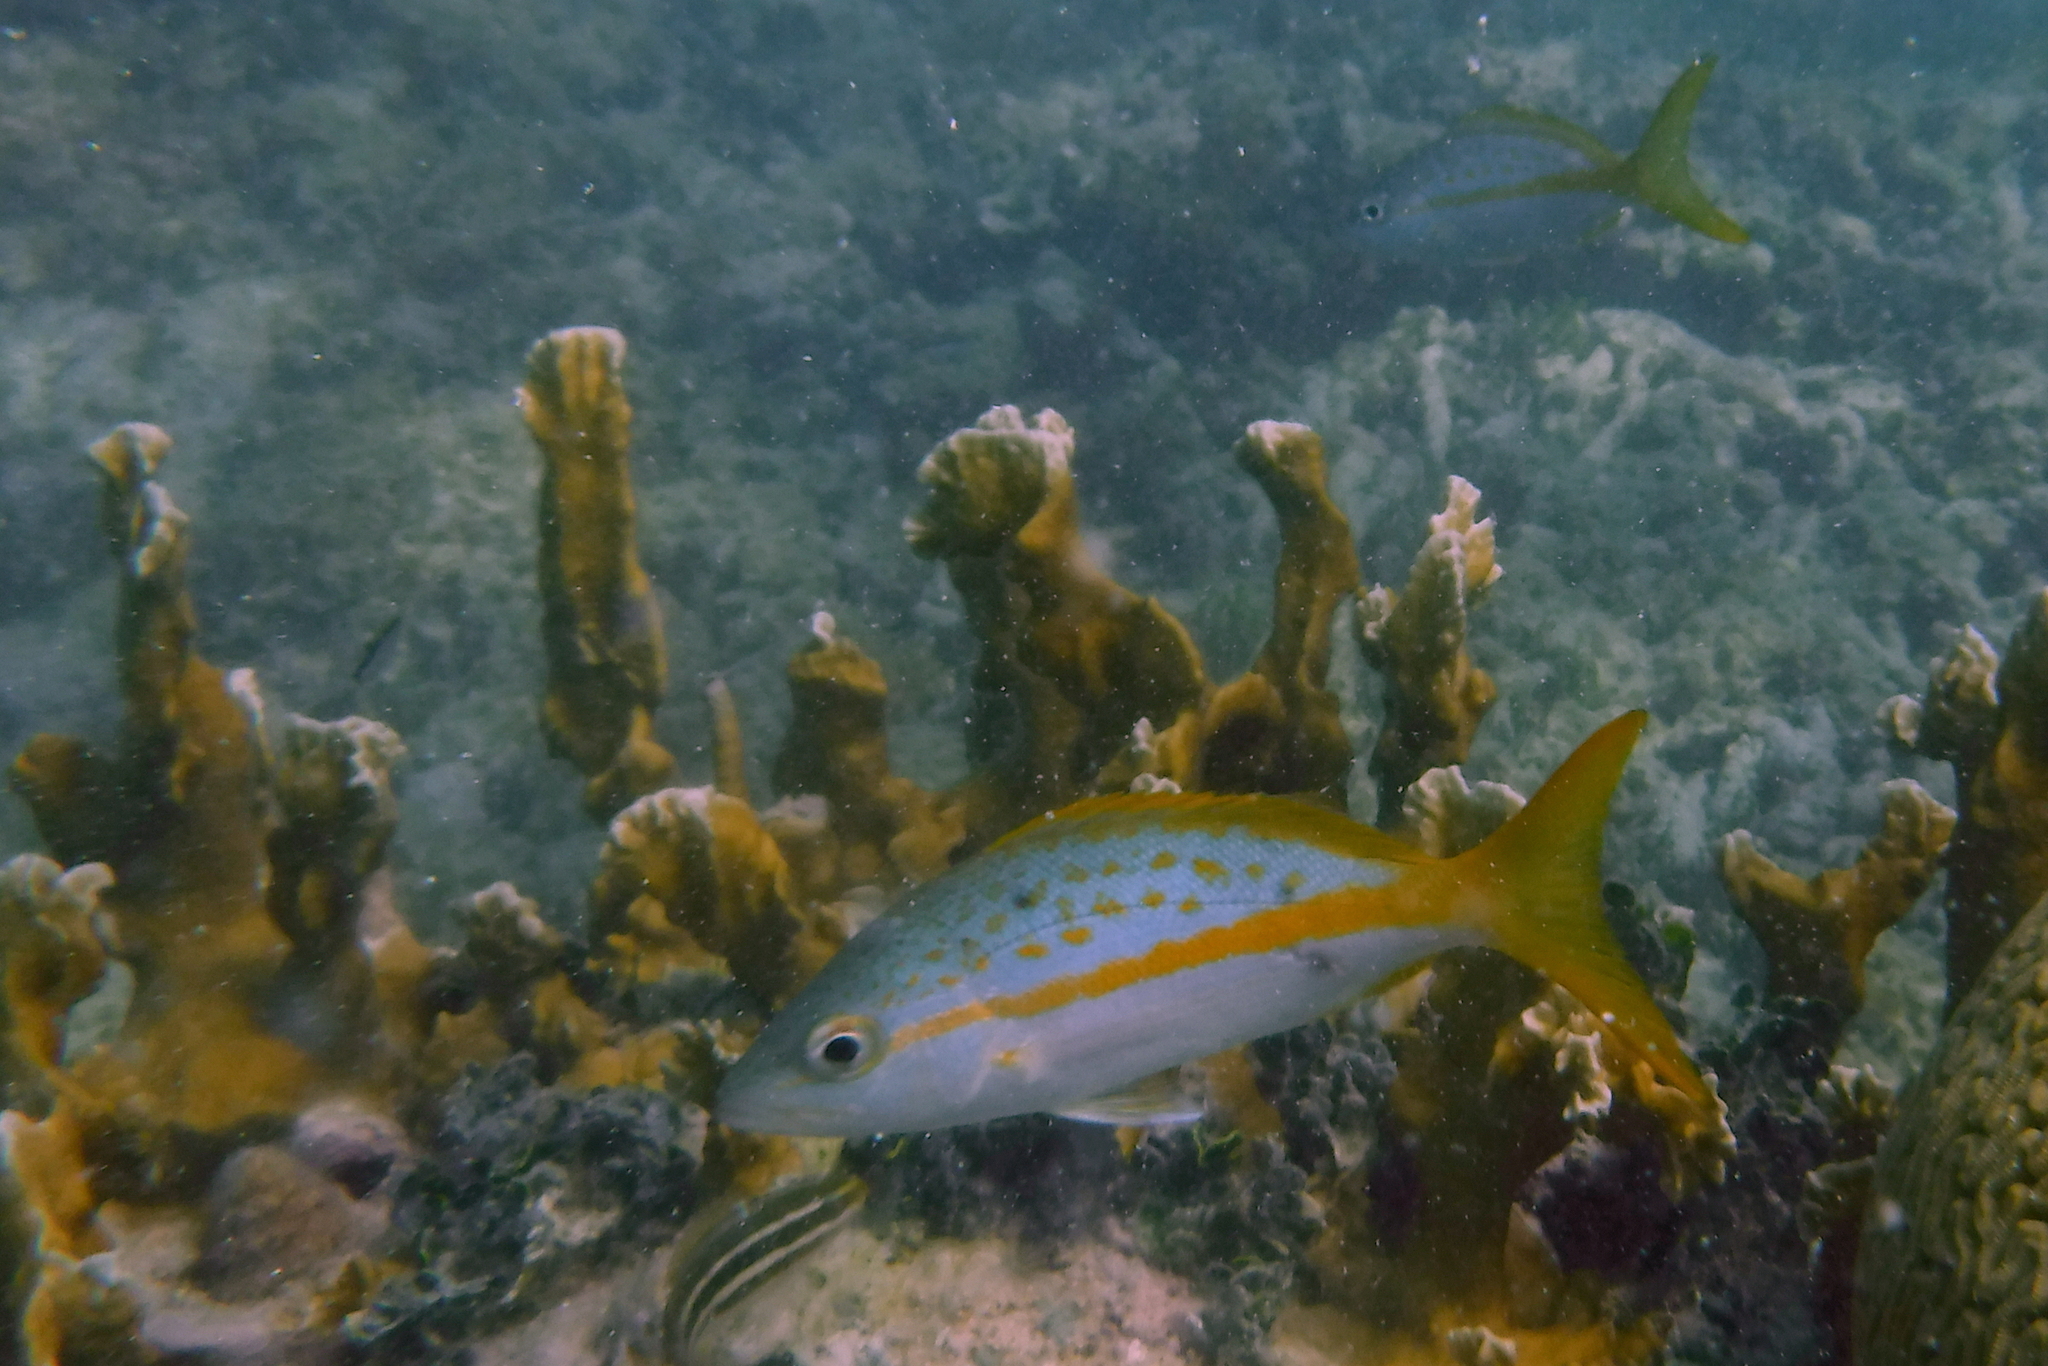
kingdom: Animalia
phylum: Chordata
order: Perciformes
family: Lutjanidae
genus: Ocyurus
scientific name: Ocyurus chrysurus
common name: Yellowtail snapper
